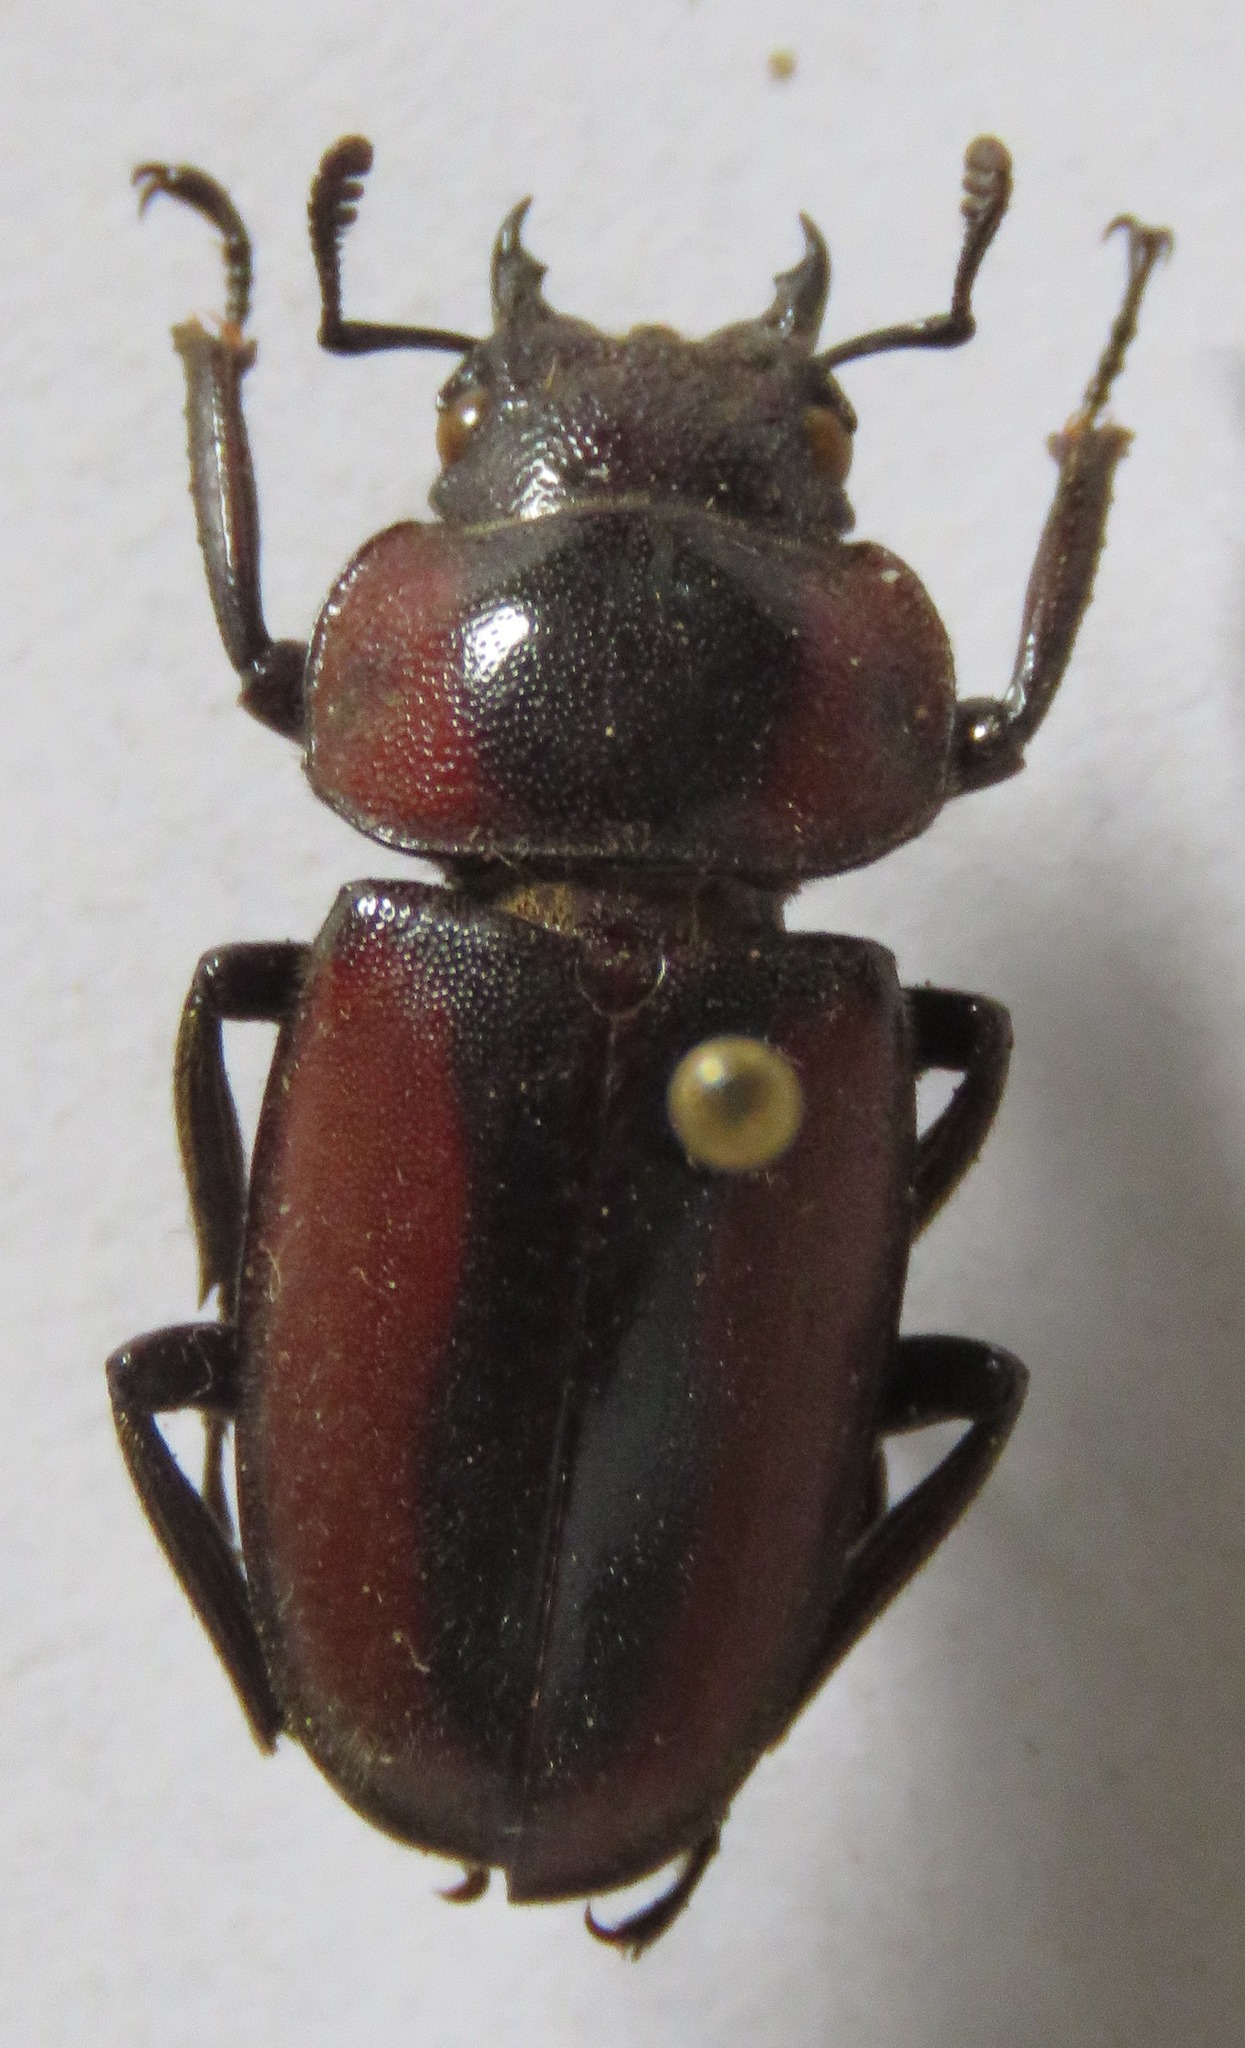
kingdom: Animalia
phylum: Arthropoda
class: Insecta
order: Coleoptera
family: Lucanidae
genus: Prosopocoilus
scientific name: Prosopocoilus kasaiensis
